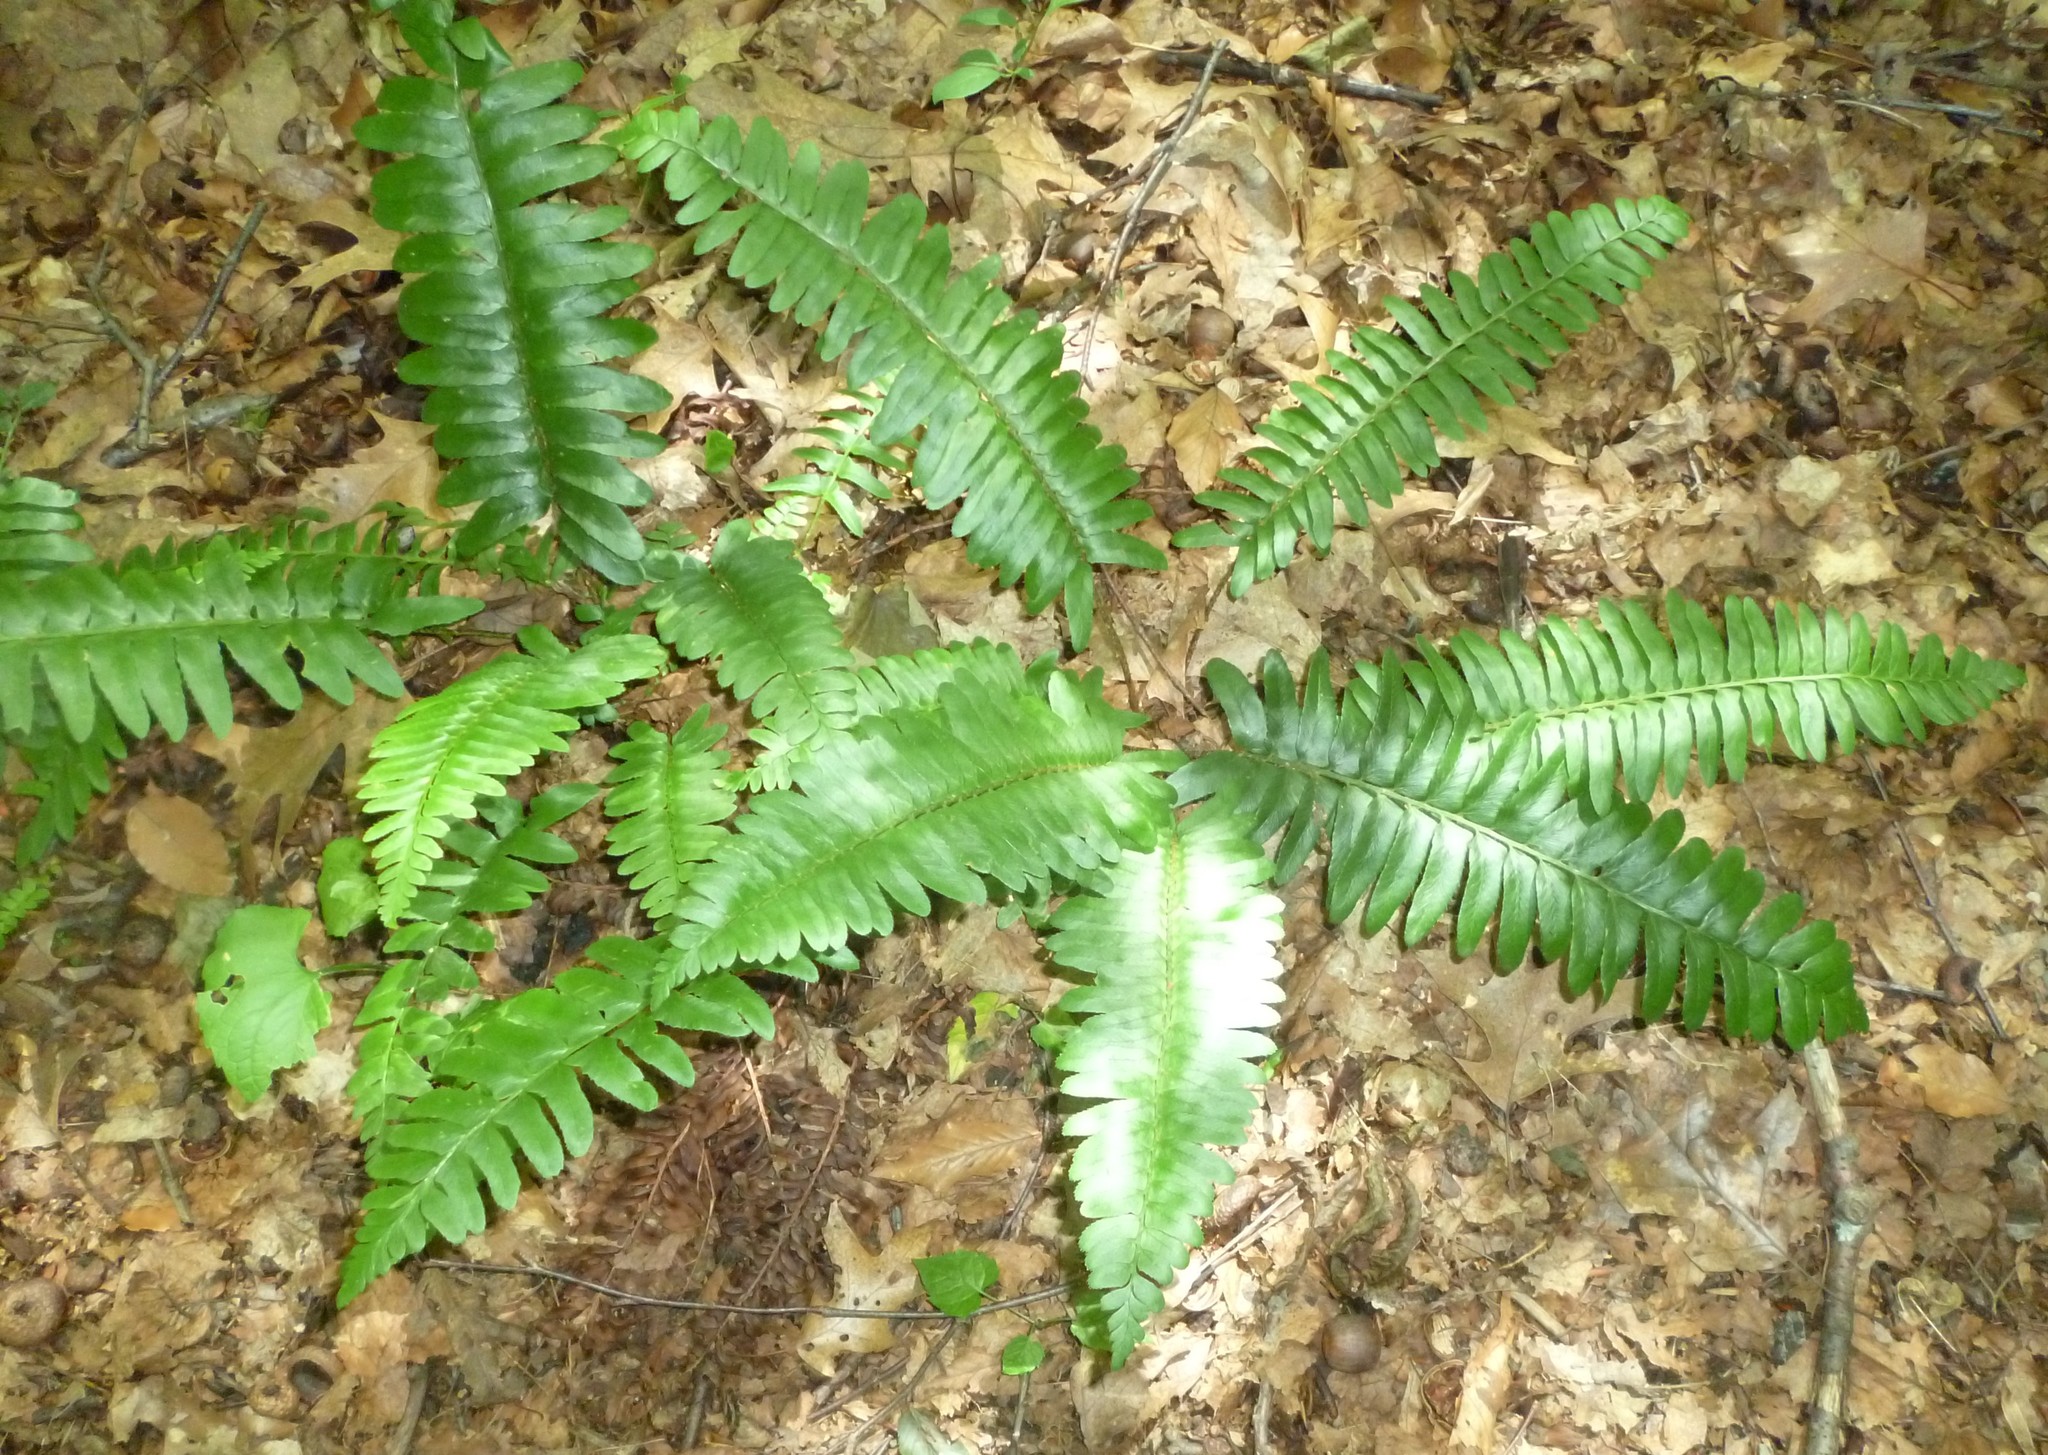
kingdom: Plantae
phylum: Tracheophyta
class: Polypodiopsida
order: Polypodiales
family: Dryopteridaceae
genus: Polystichum
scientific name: Polystichum acrostichoides
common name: Christmas fern
